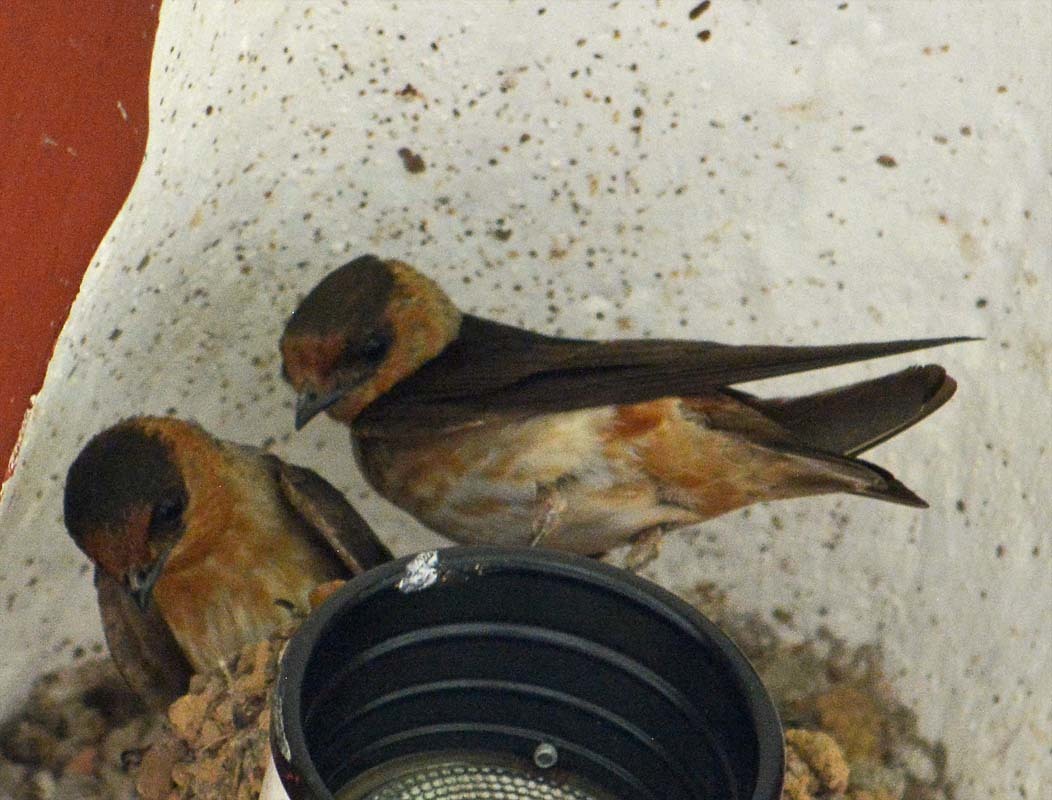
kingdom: Animalia
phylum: Chordata
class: Aves
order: Passeriformes
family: Hirundinidae
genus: Petrochelidon
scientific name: Petrochelidon fulva
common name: Cave swallow
